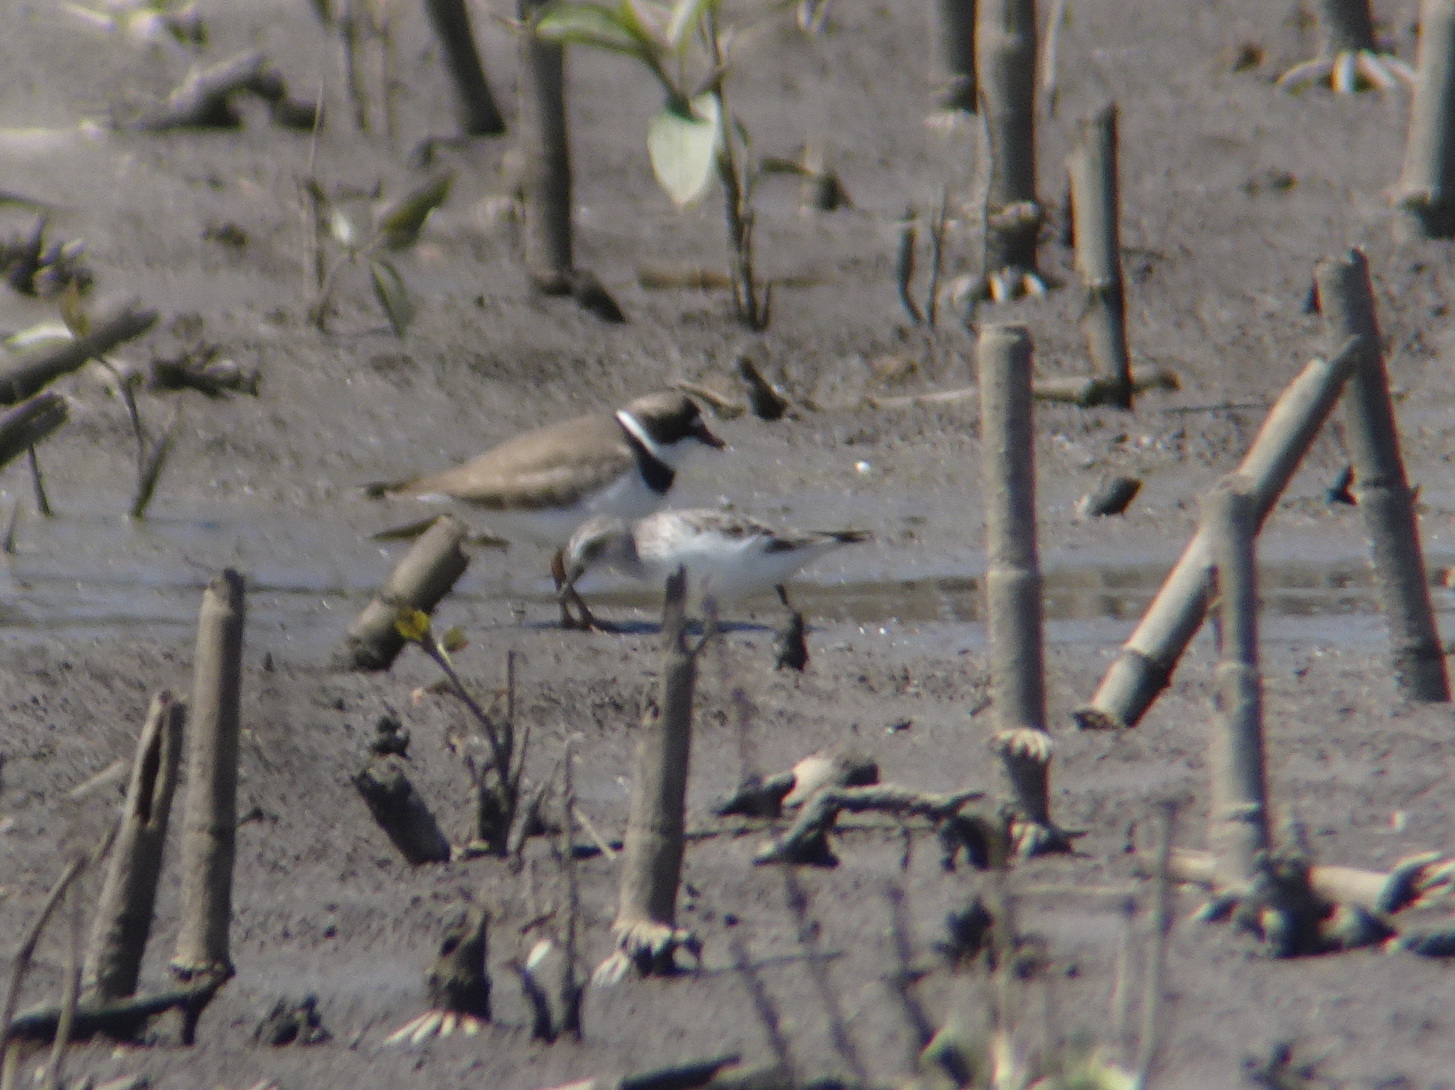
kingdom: Animalia
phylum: Chordata
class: Aves
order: Charadriiformes
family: Scolopacidae
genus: Calidris
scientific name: Calidris pusilla
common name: Semipalmated sandpiper
